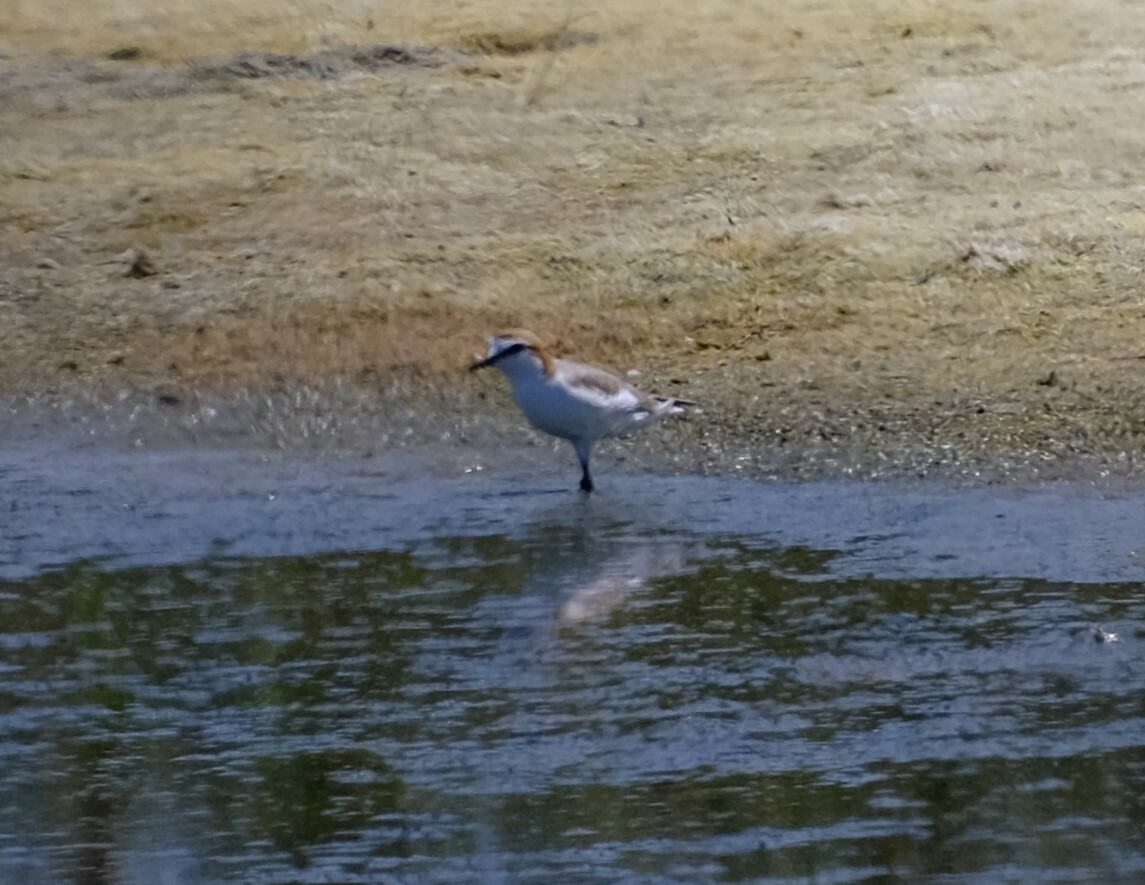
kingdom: Animalia
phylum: Chordata
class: Aves
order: Charadriiformes
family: Charadriidae
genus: Anarhynchus
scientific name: Anarhynchus
